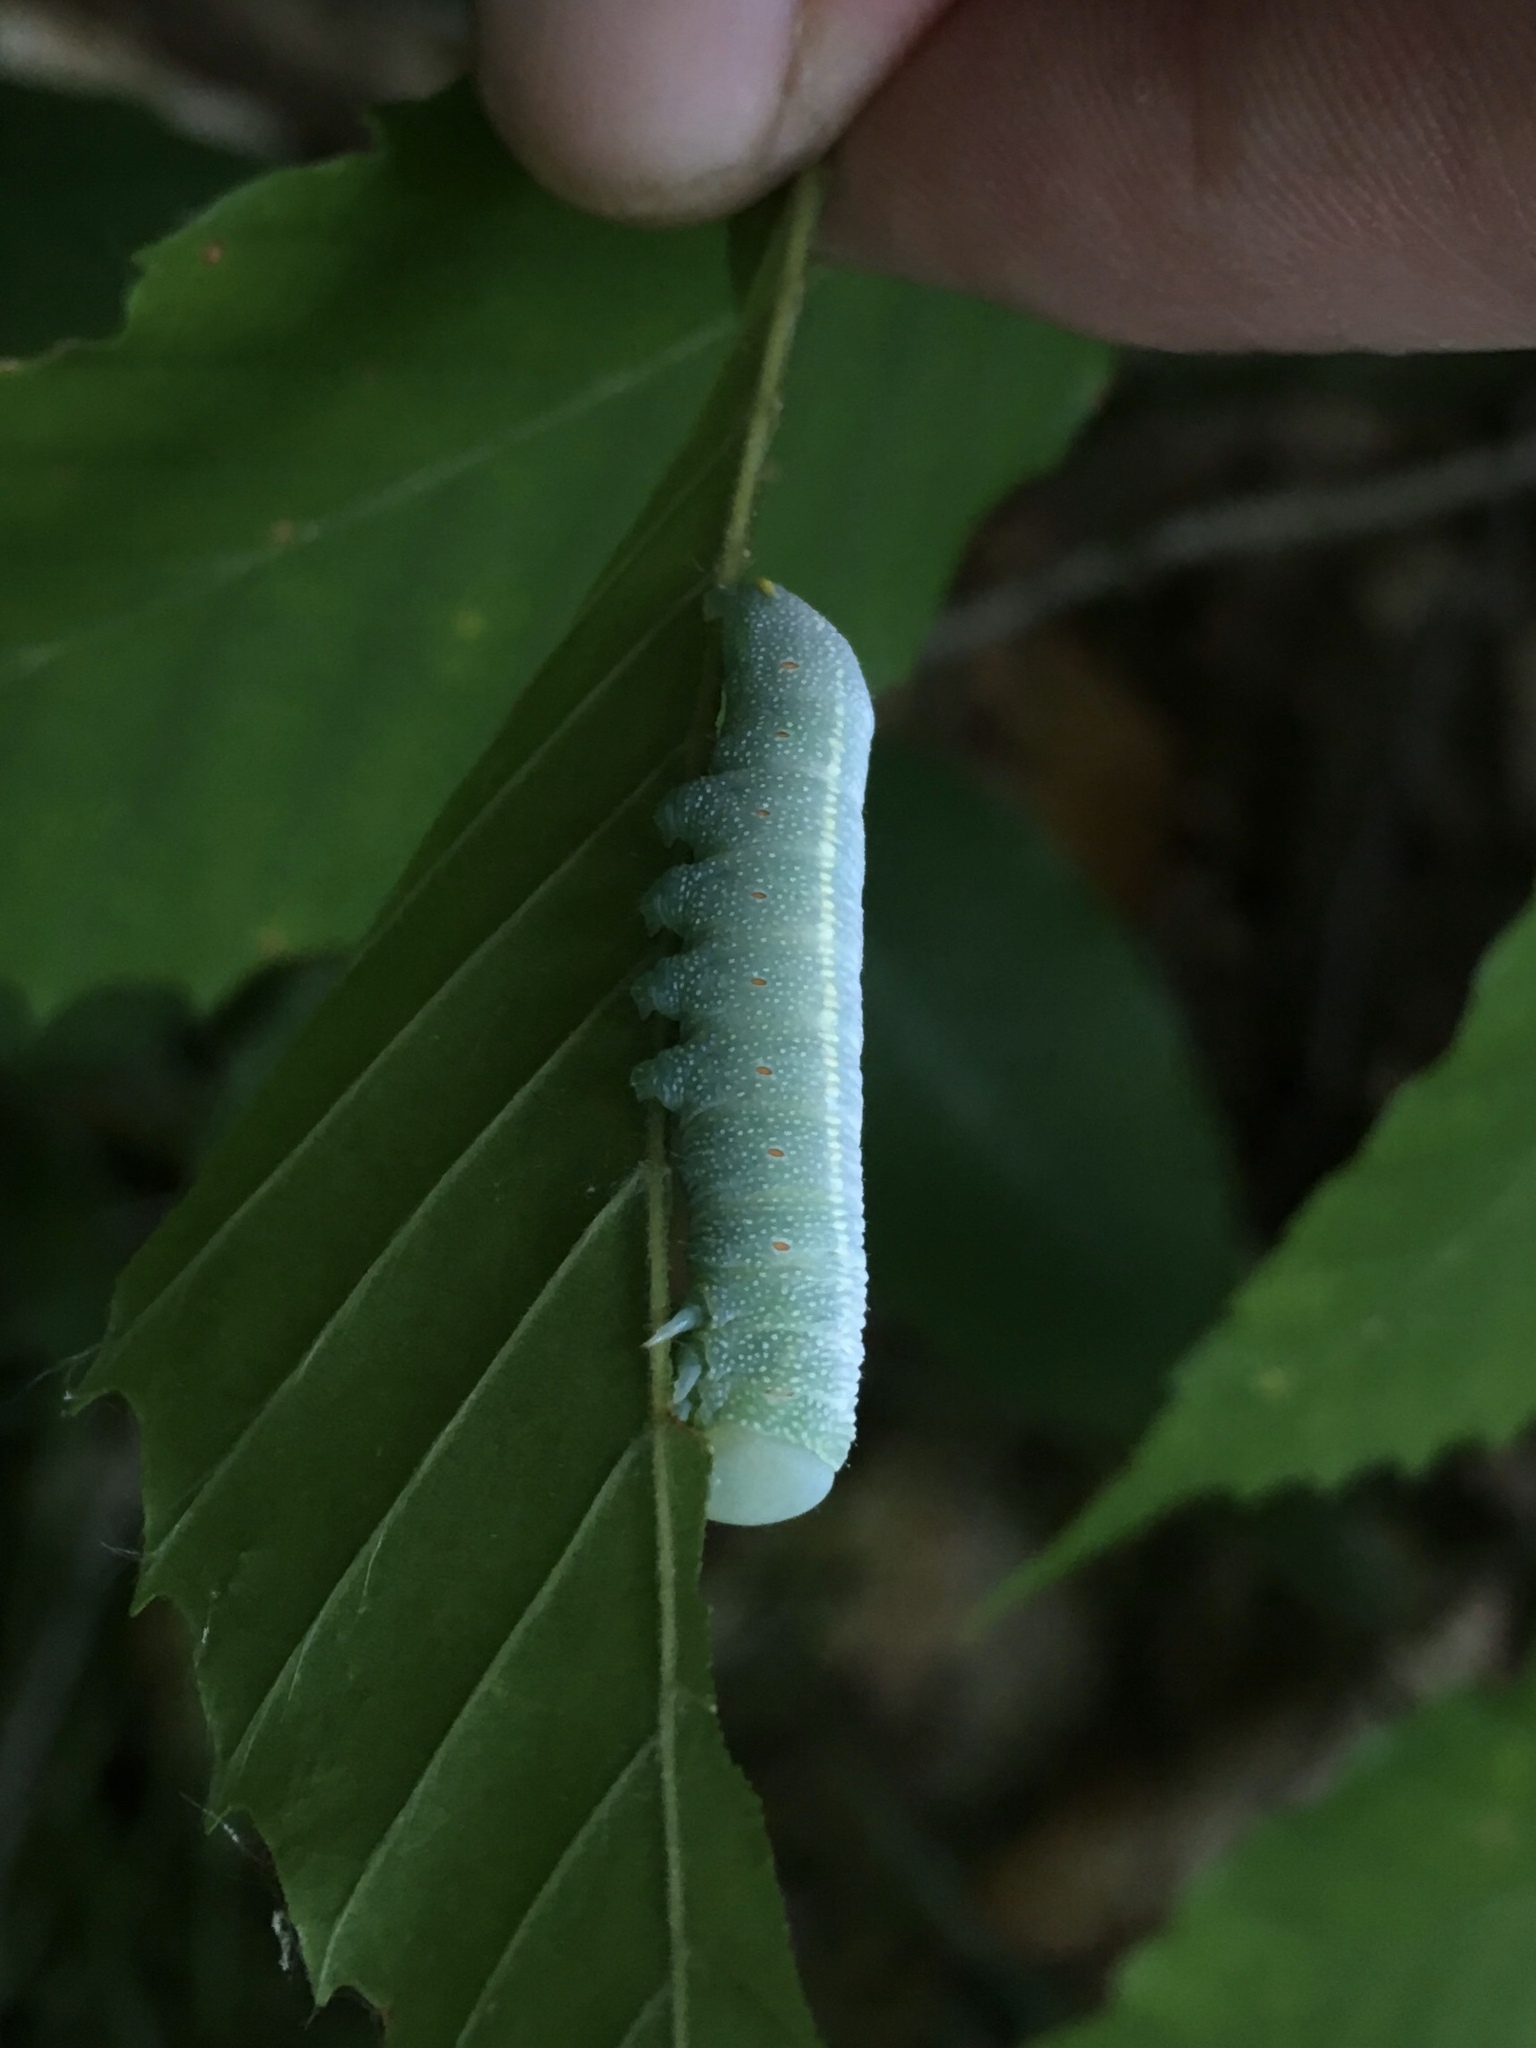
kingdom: Animalia
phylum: Arthropoda
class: Insecta
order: Lepidoptera
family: Notodontidae
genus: Nadata
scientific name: Nadata gibbosa
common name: White-dotted prominent
